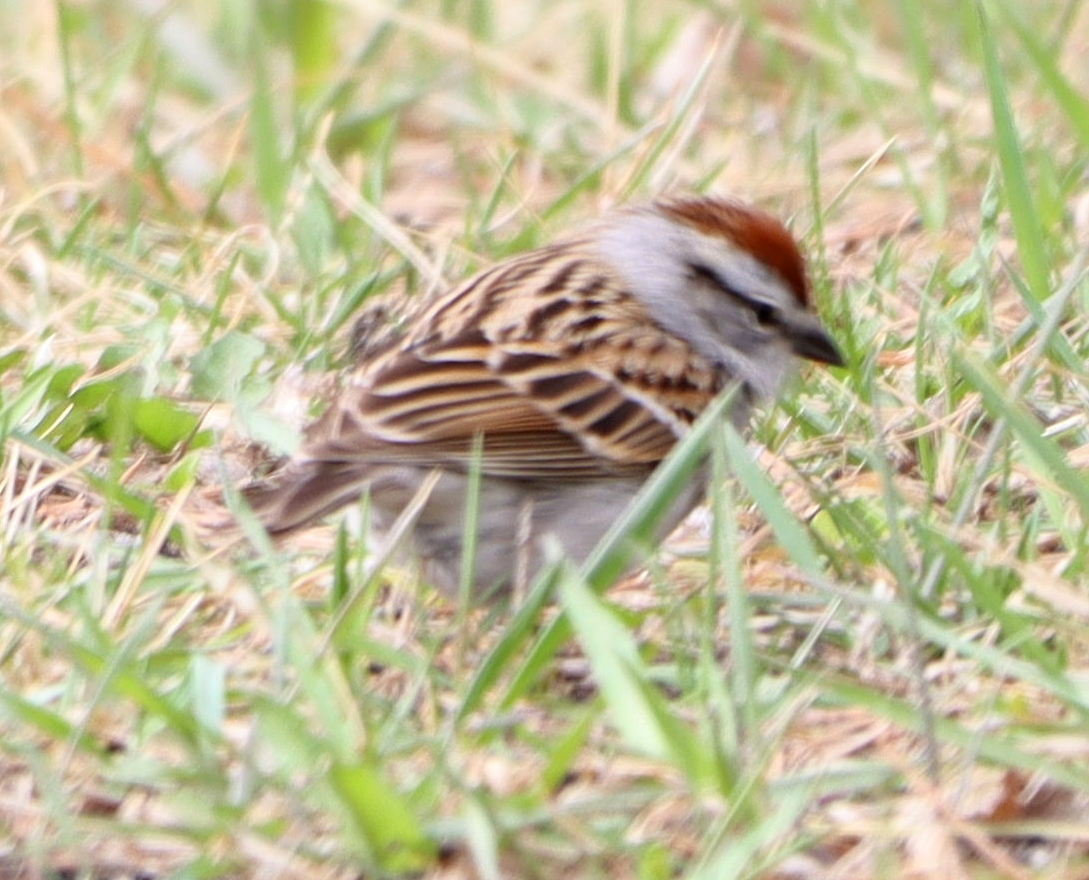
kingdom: Animalia
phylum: Chordata
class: Aves
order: Passeriformes
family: Passerellidae
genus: Spizella
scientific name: Spizella passerina
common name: Chipping sparrow
